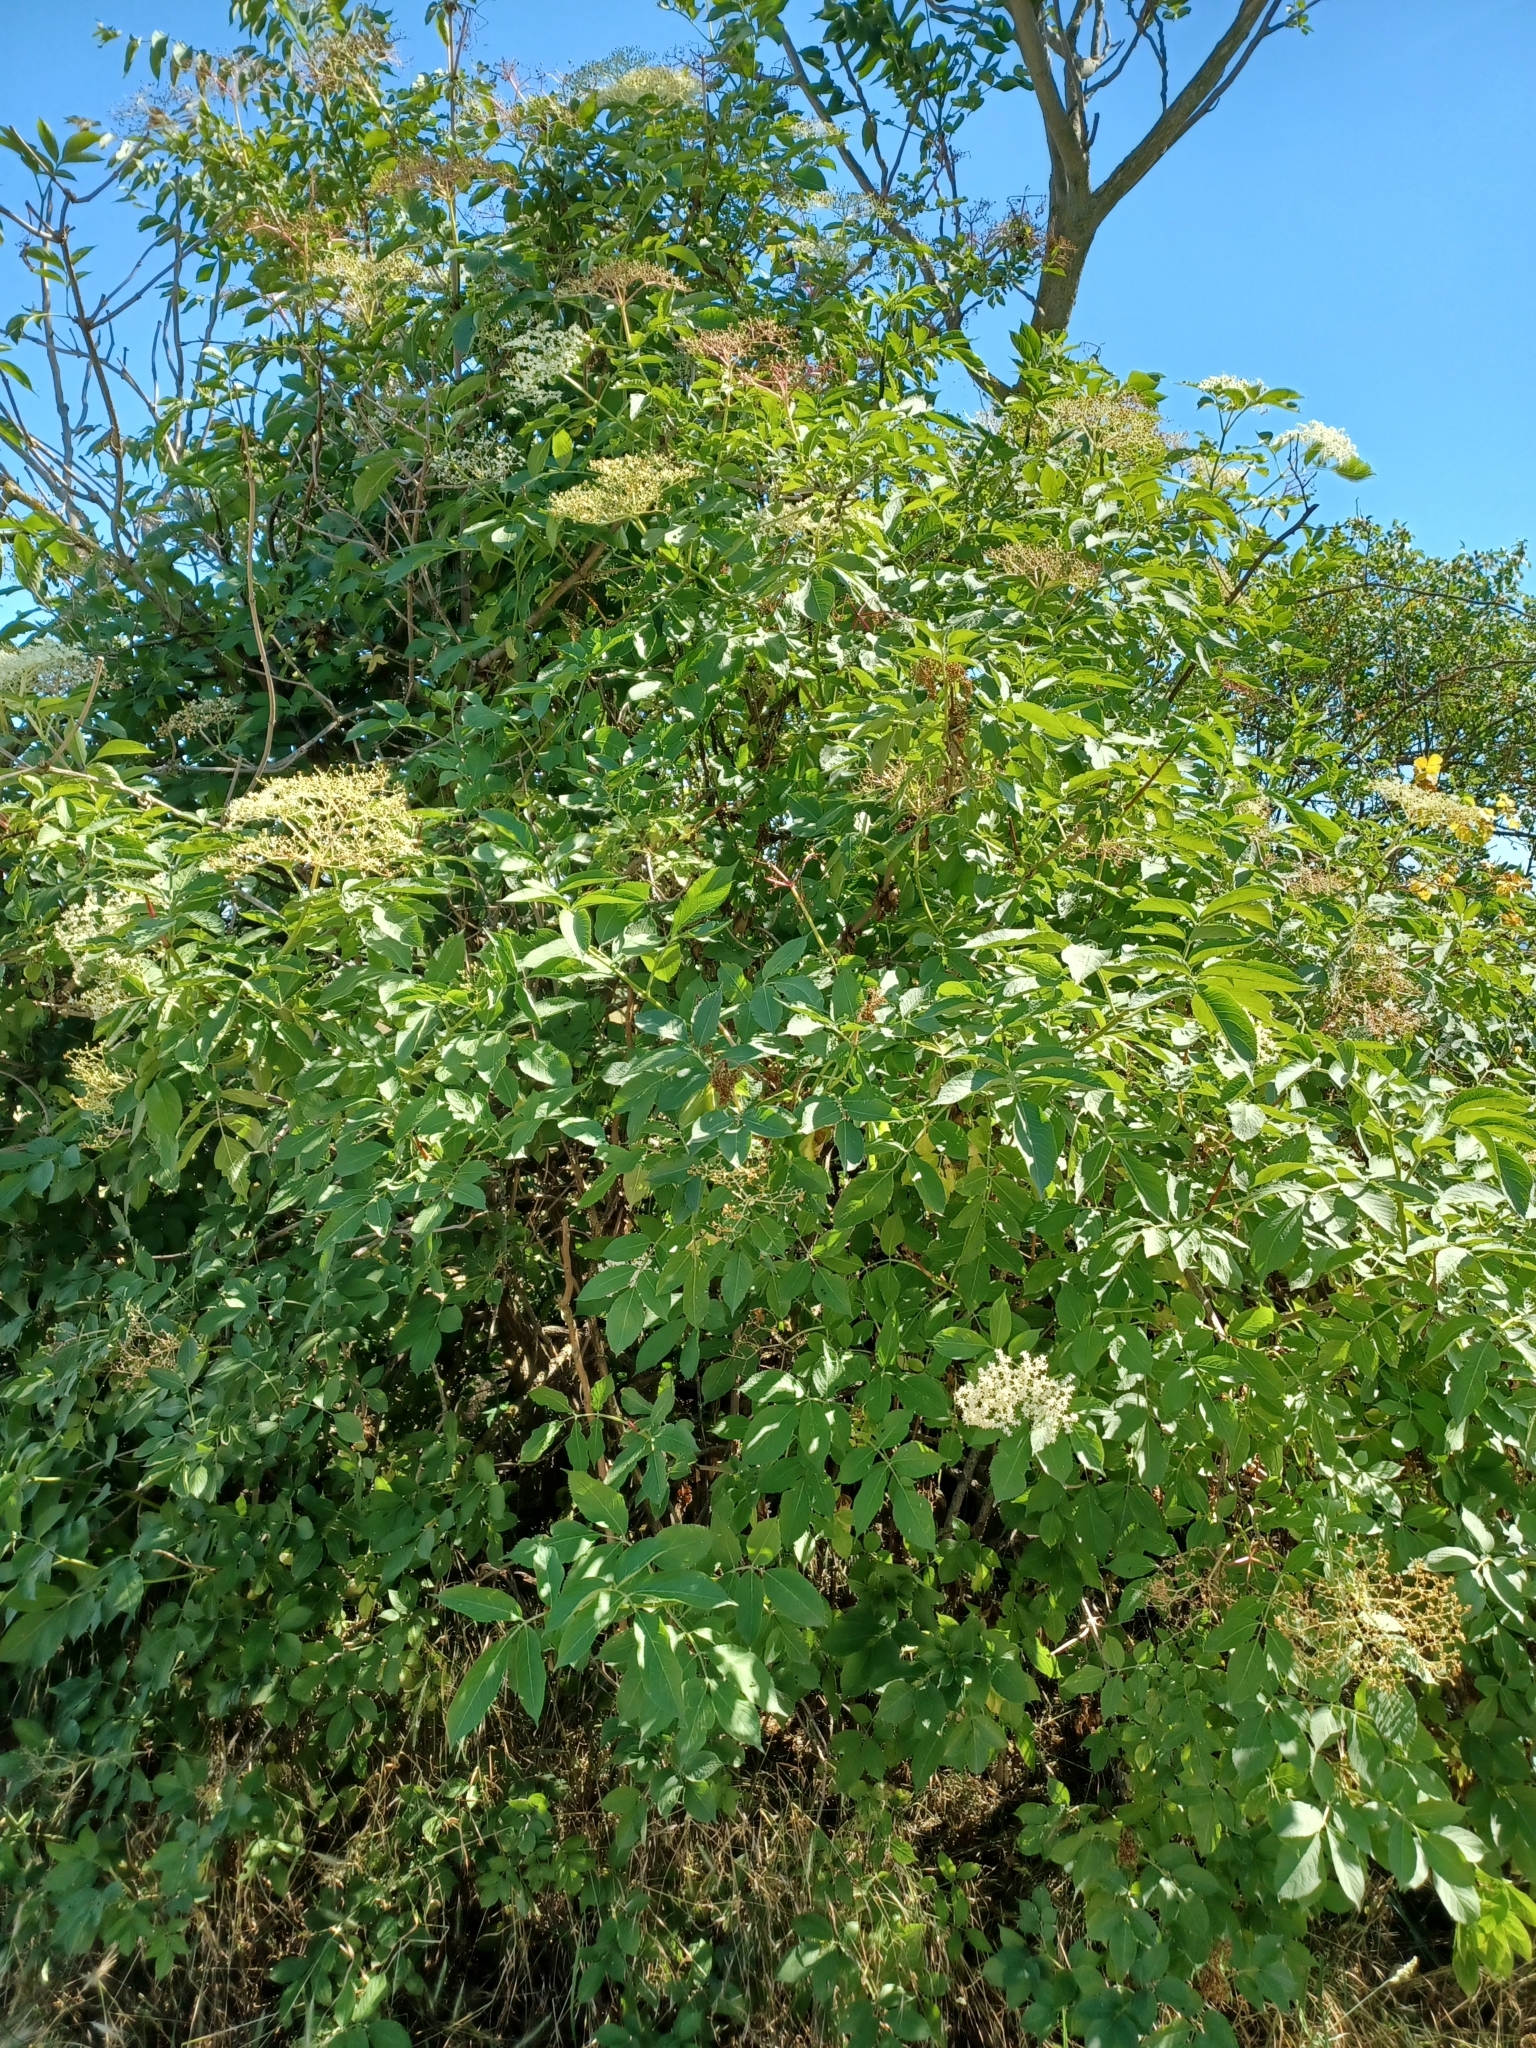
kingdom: Plantae
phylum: Tracheophyta
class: Magnoliopsida
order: Dipsacales
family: Viburnaceae
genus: Sambucus
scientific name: Sambucus nigra
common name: Elder
